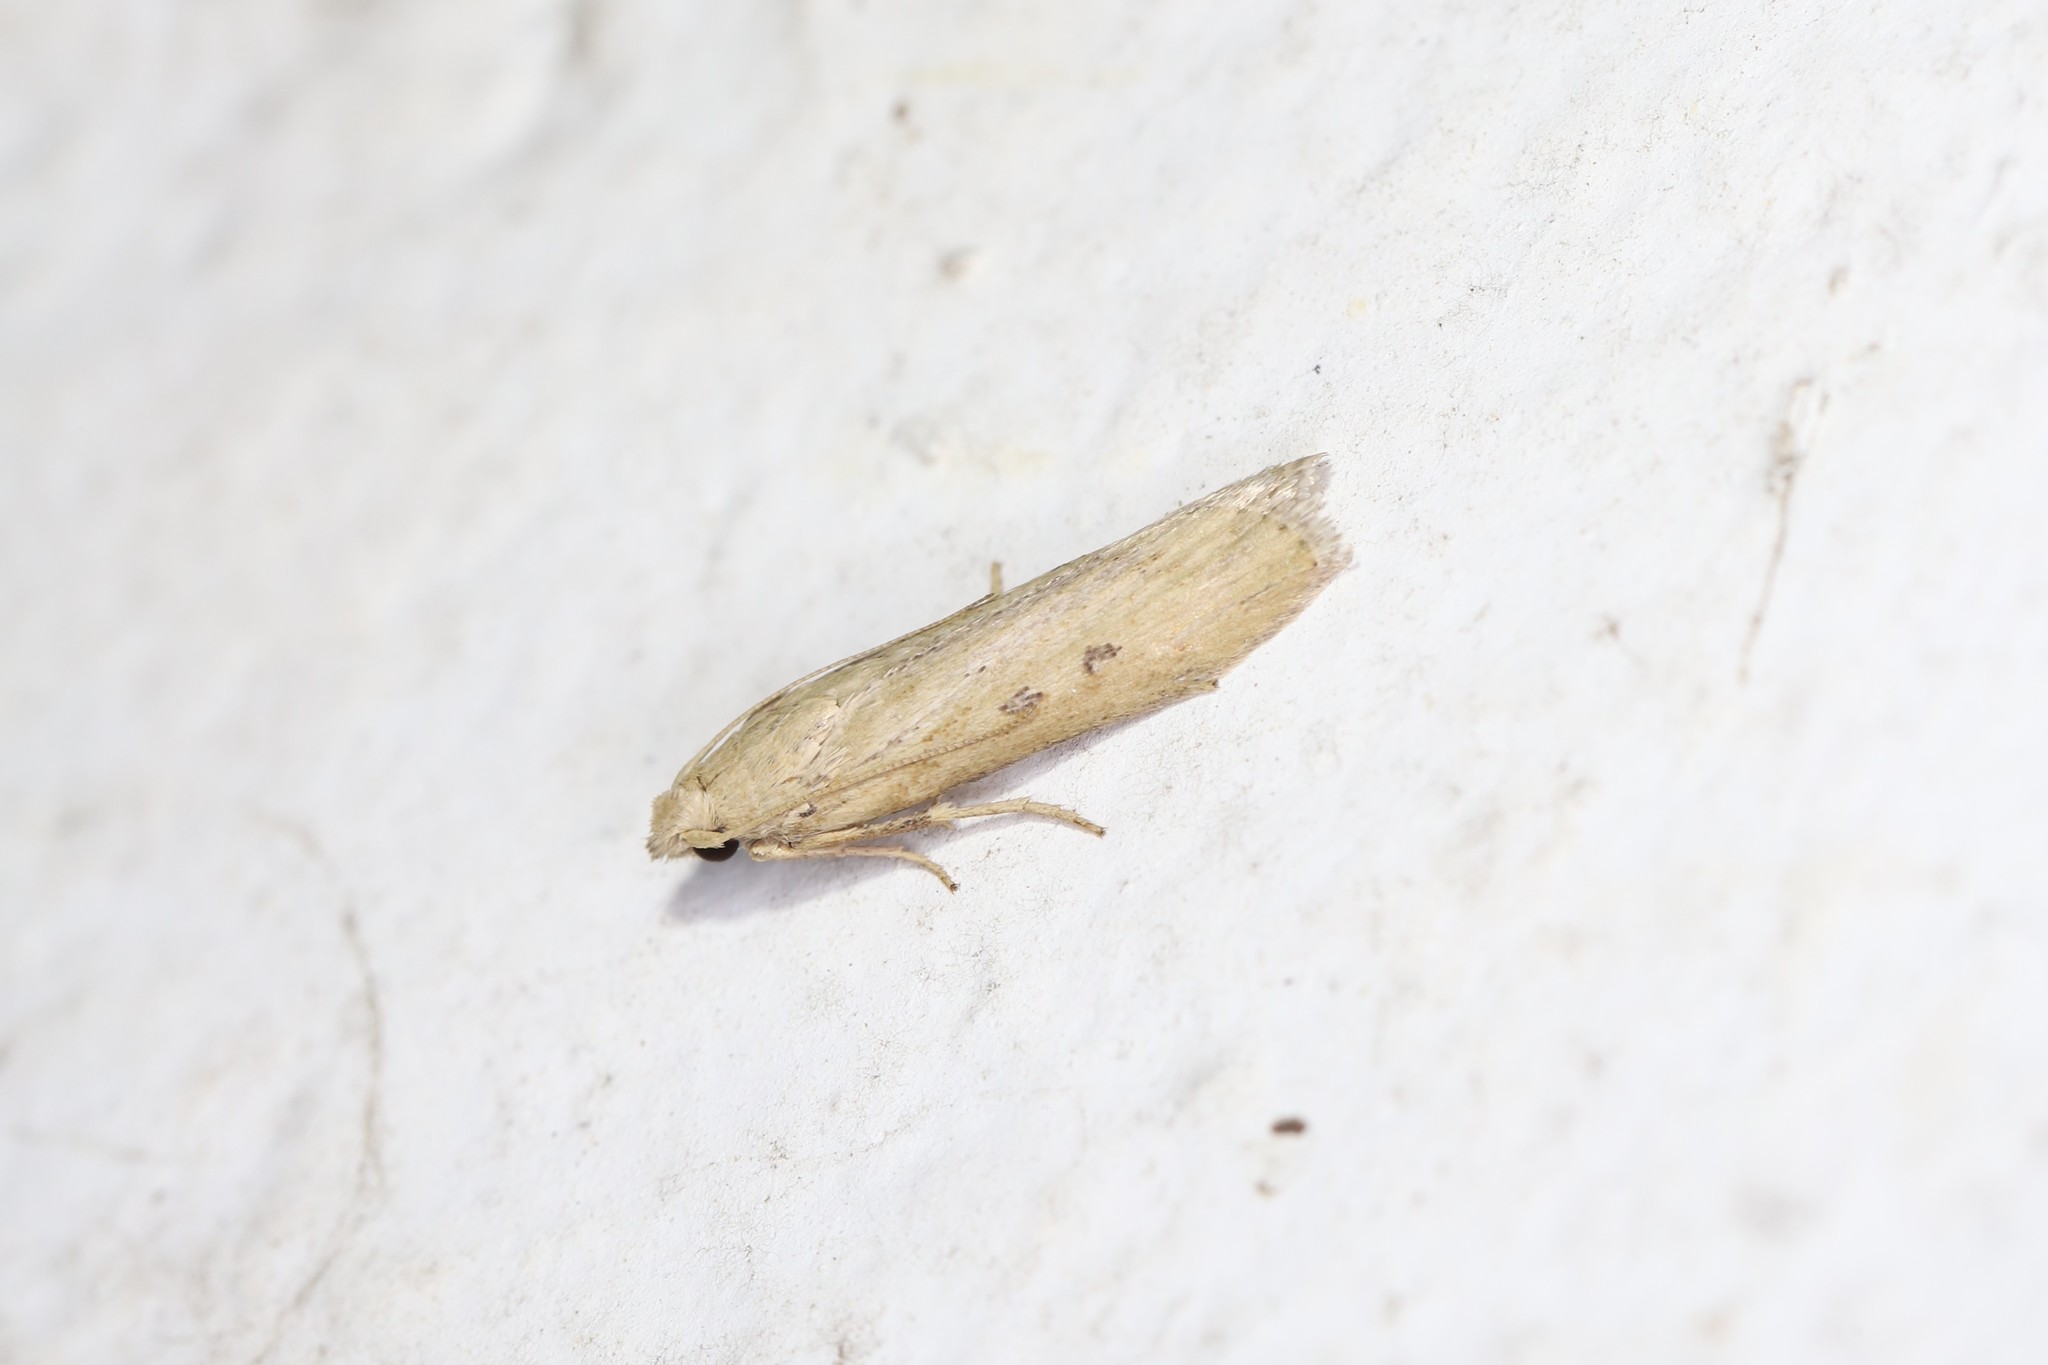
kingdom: Animalia
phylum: Arthropoda
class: Insecta
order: Lepidoptera
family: Pyralidae
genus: Aphomia
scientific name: Aphomia zelleri
